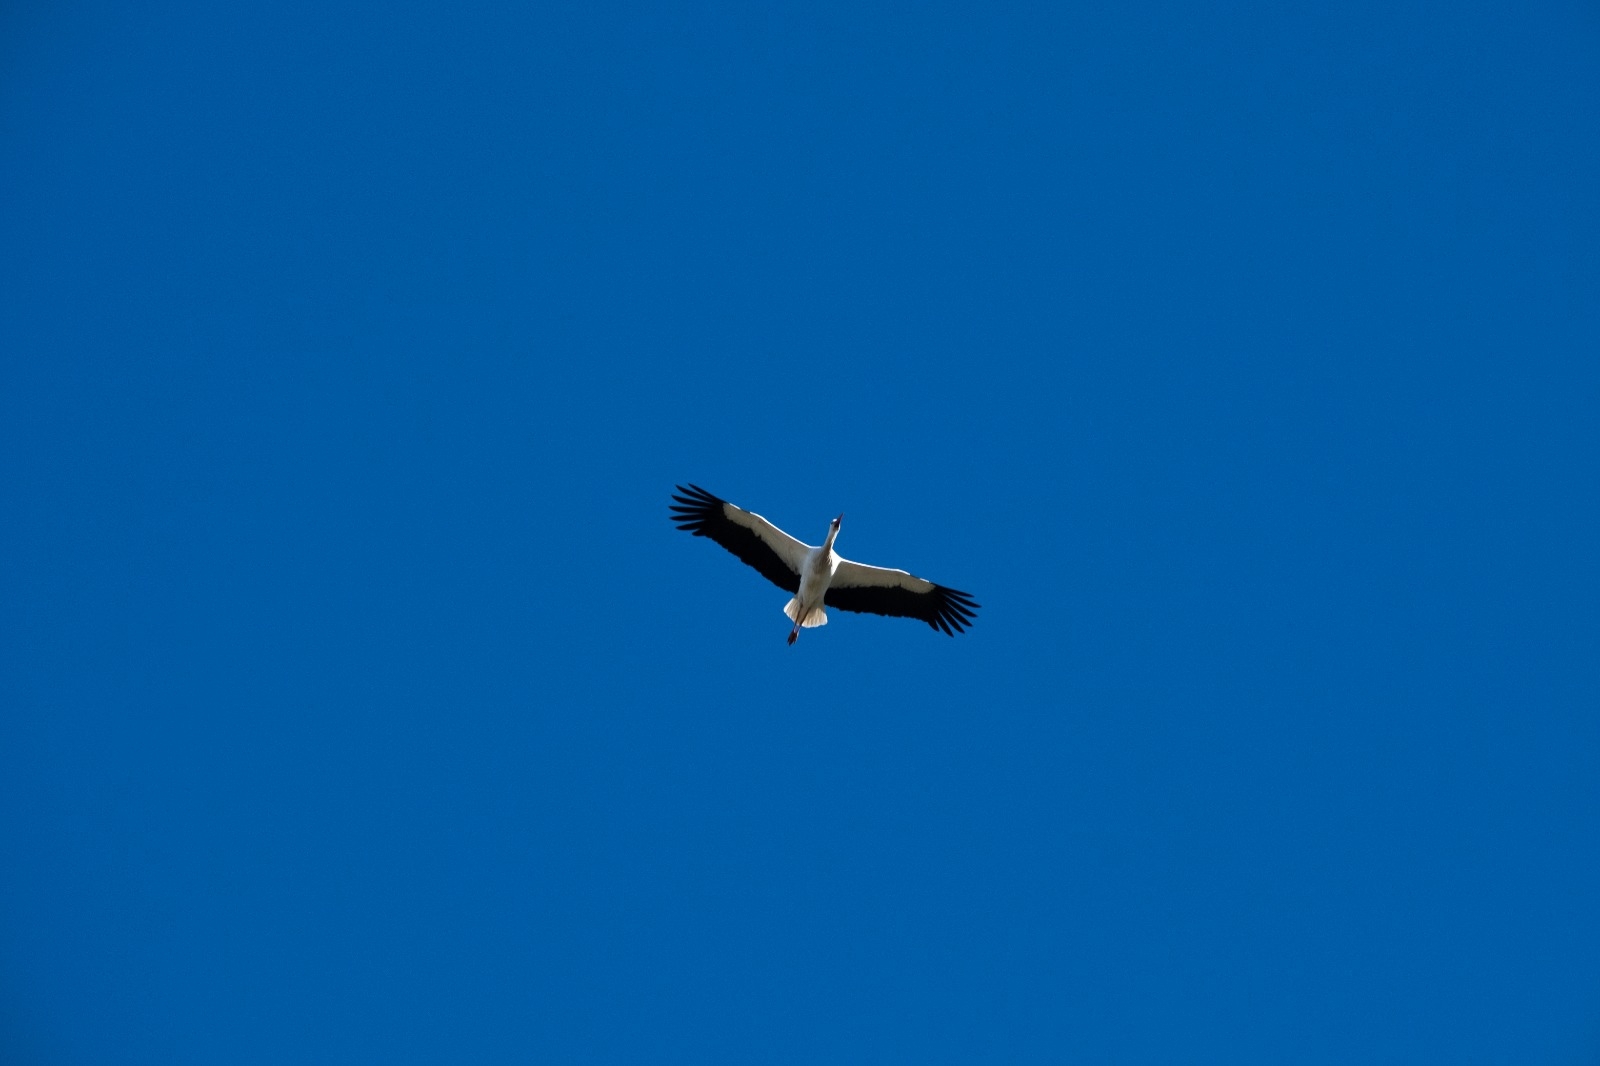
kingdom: Animalia
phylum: Chordata
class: Aves
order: Ciconiiformes
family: Ciconiidae
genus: Ciconia
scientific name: Ciconia ciconia
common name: White stork
